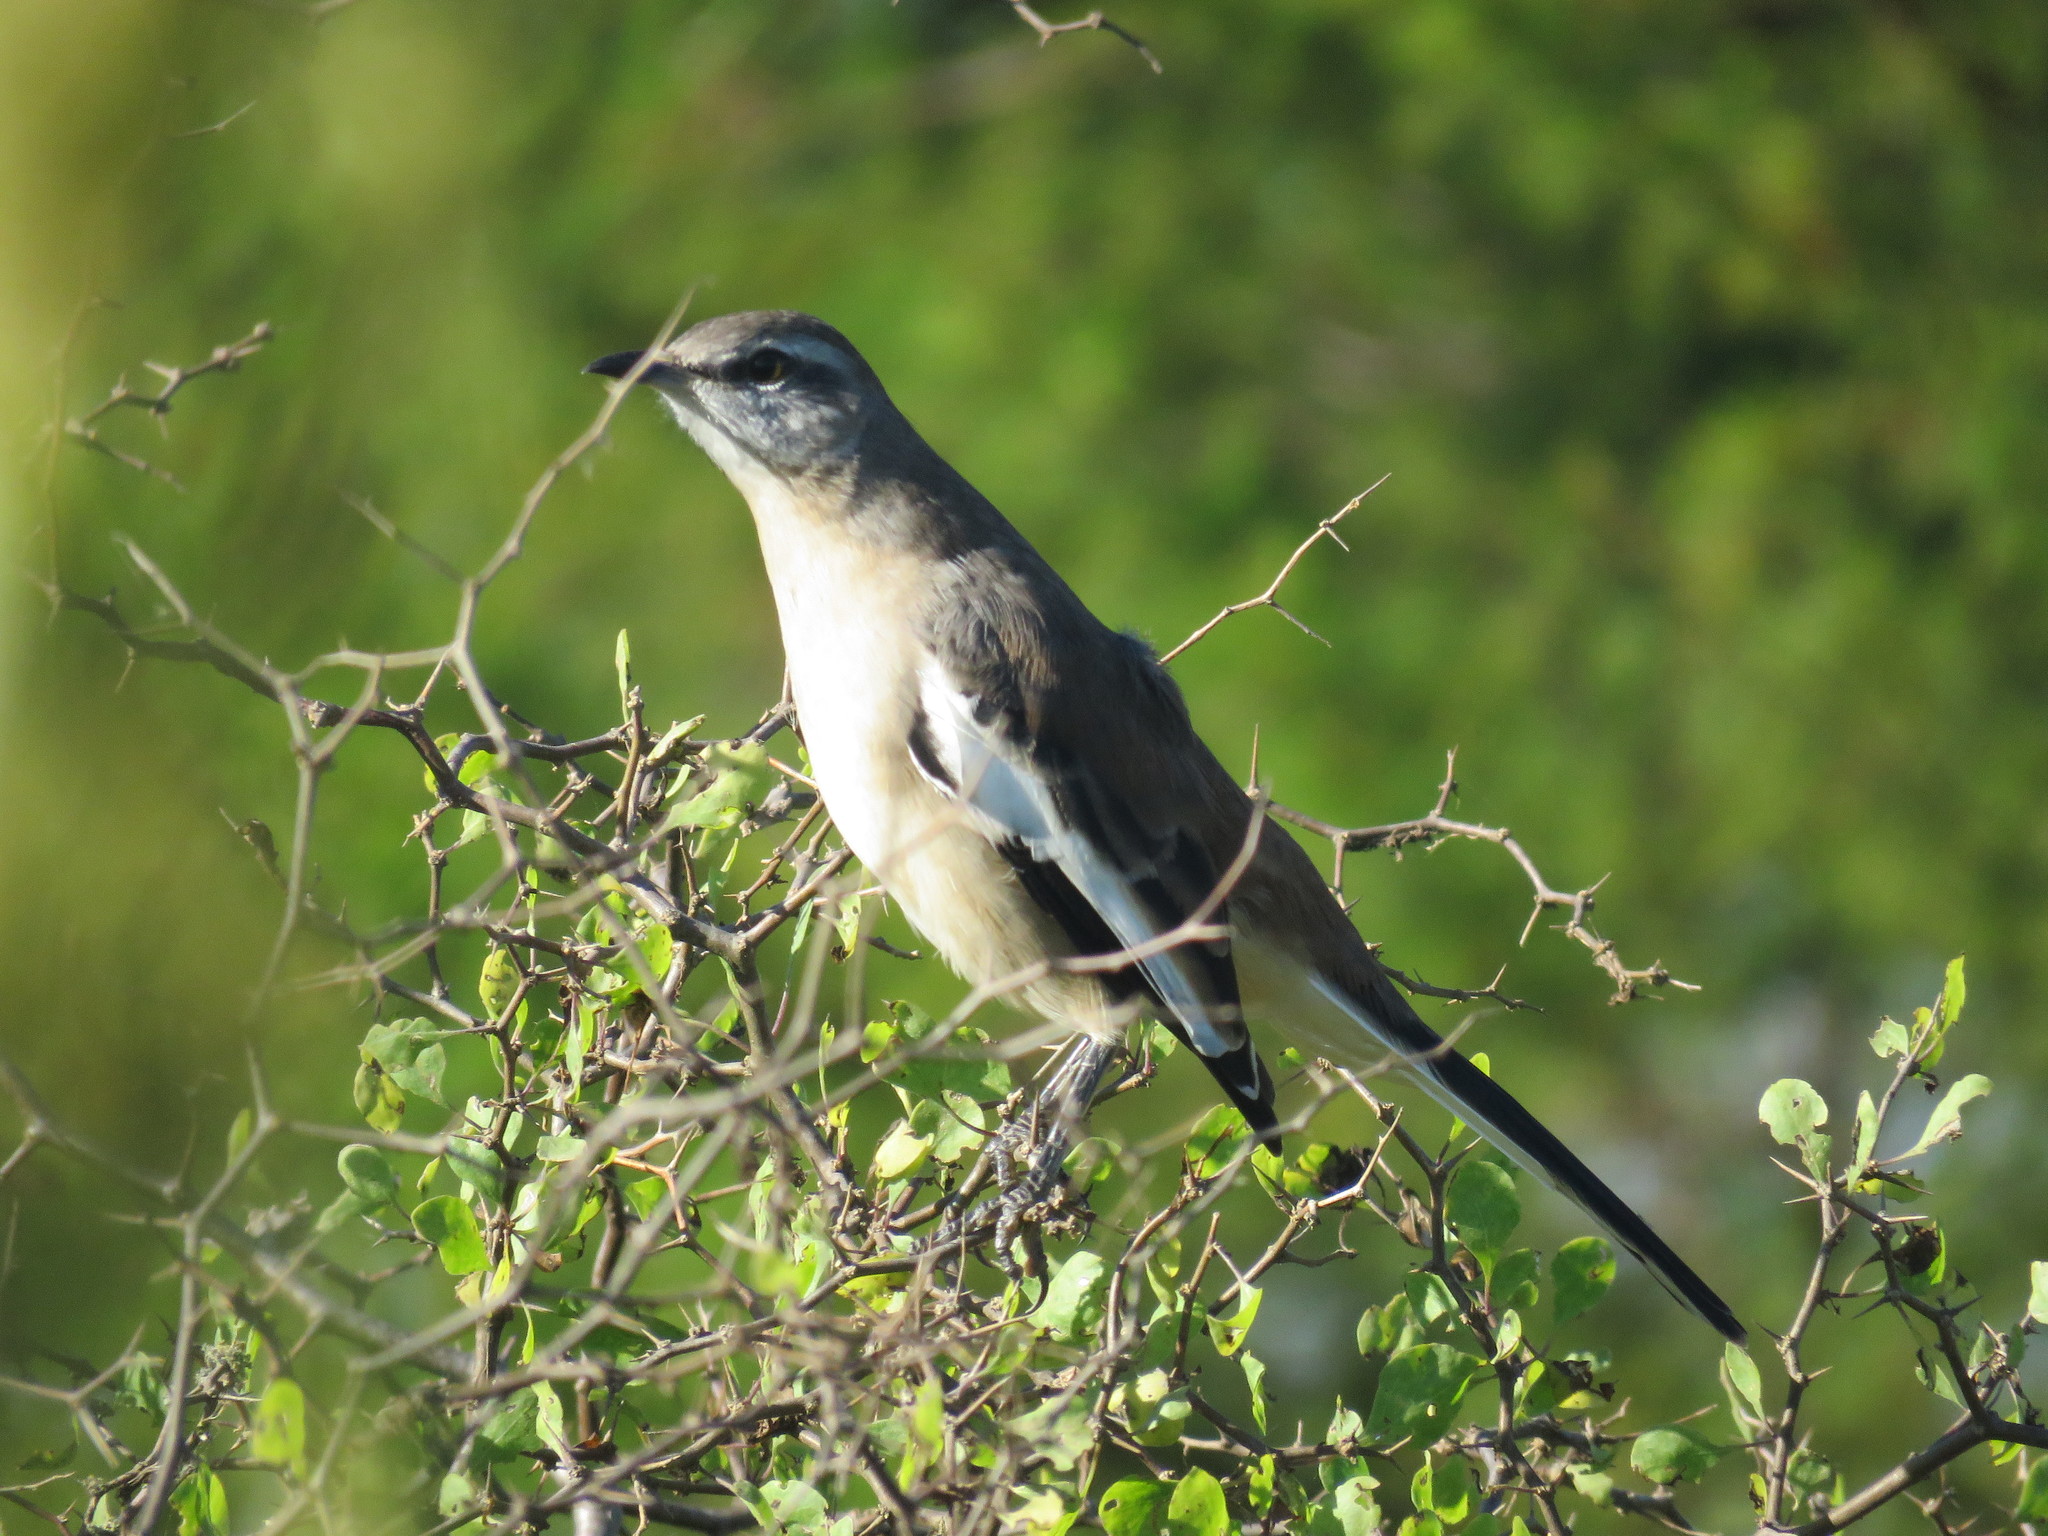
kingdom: Animalia
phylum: Chordata
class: Aves
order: Passeriformes
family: Mimidae
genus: Mimus
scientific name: Mimus triurus
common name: White-banded mockingbird
